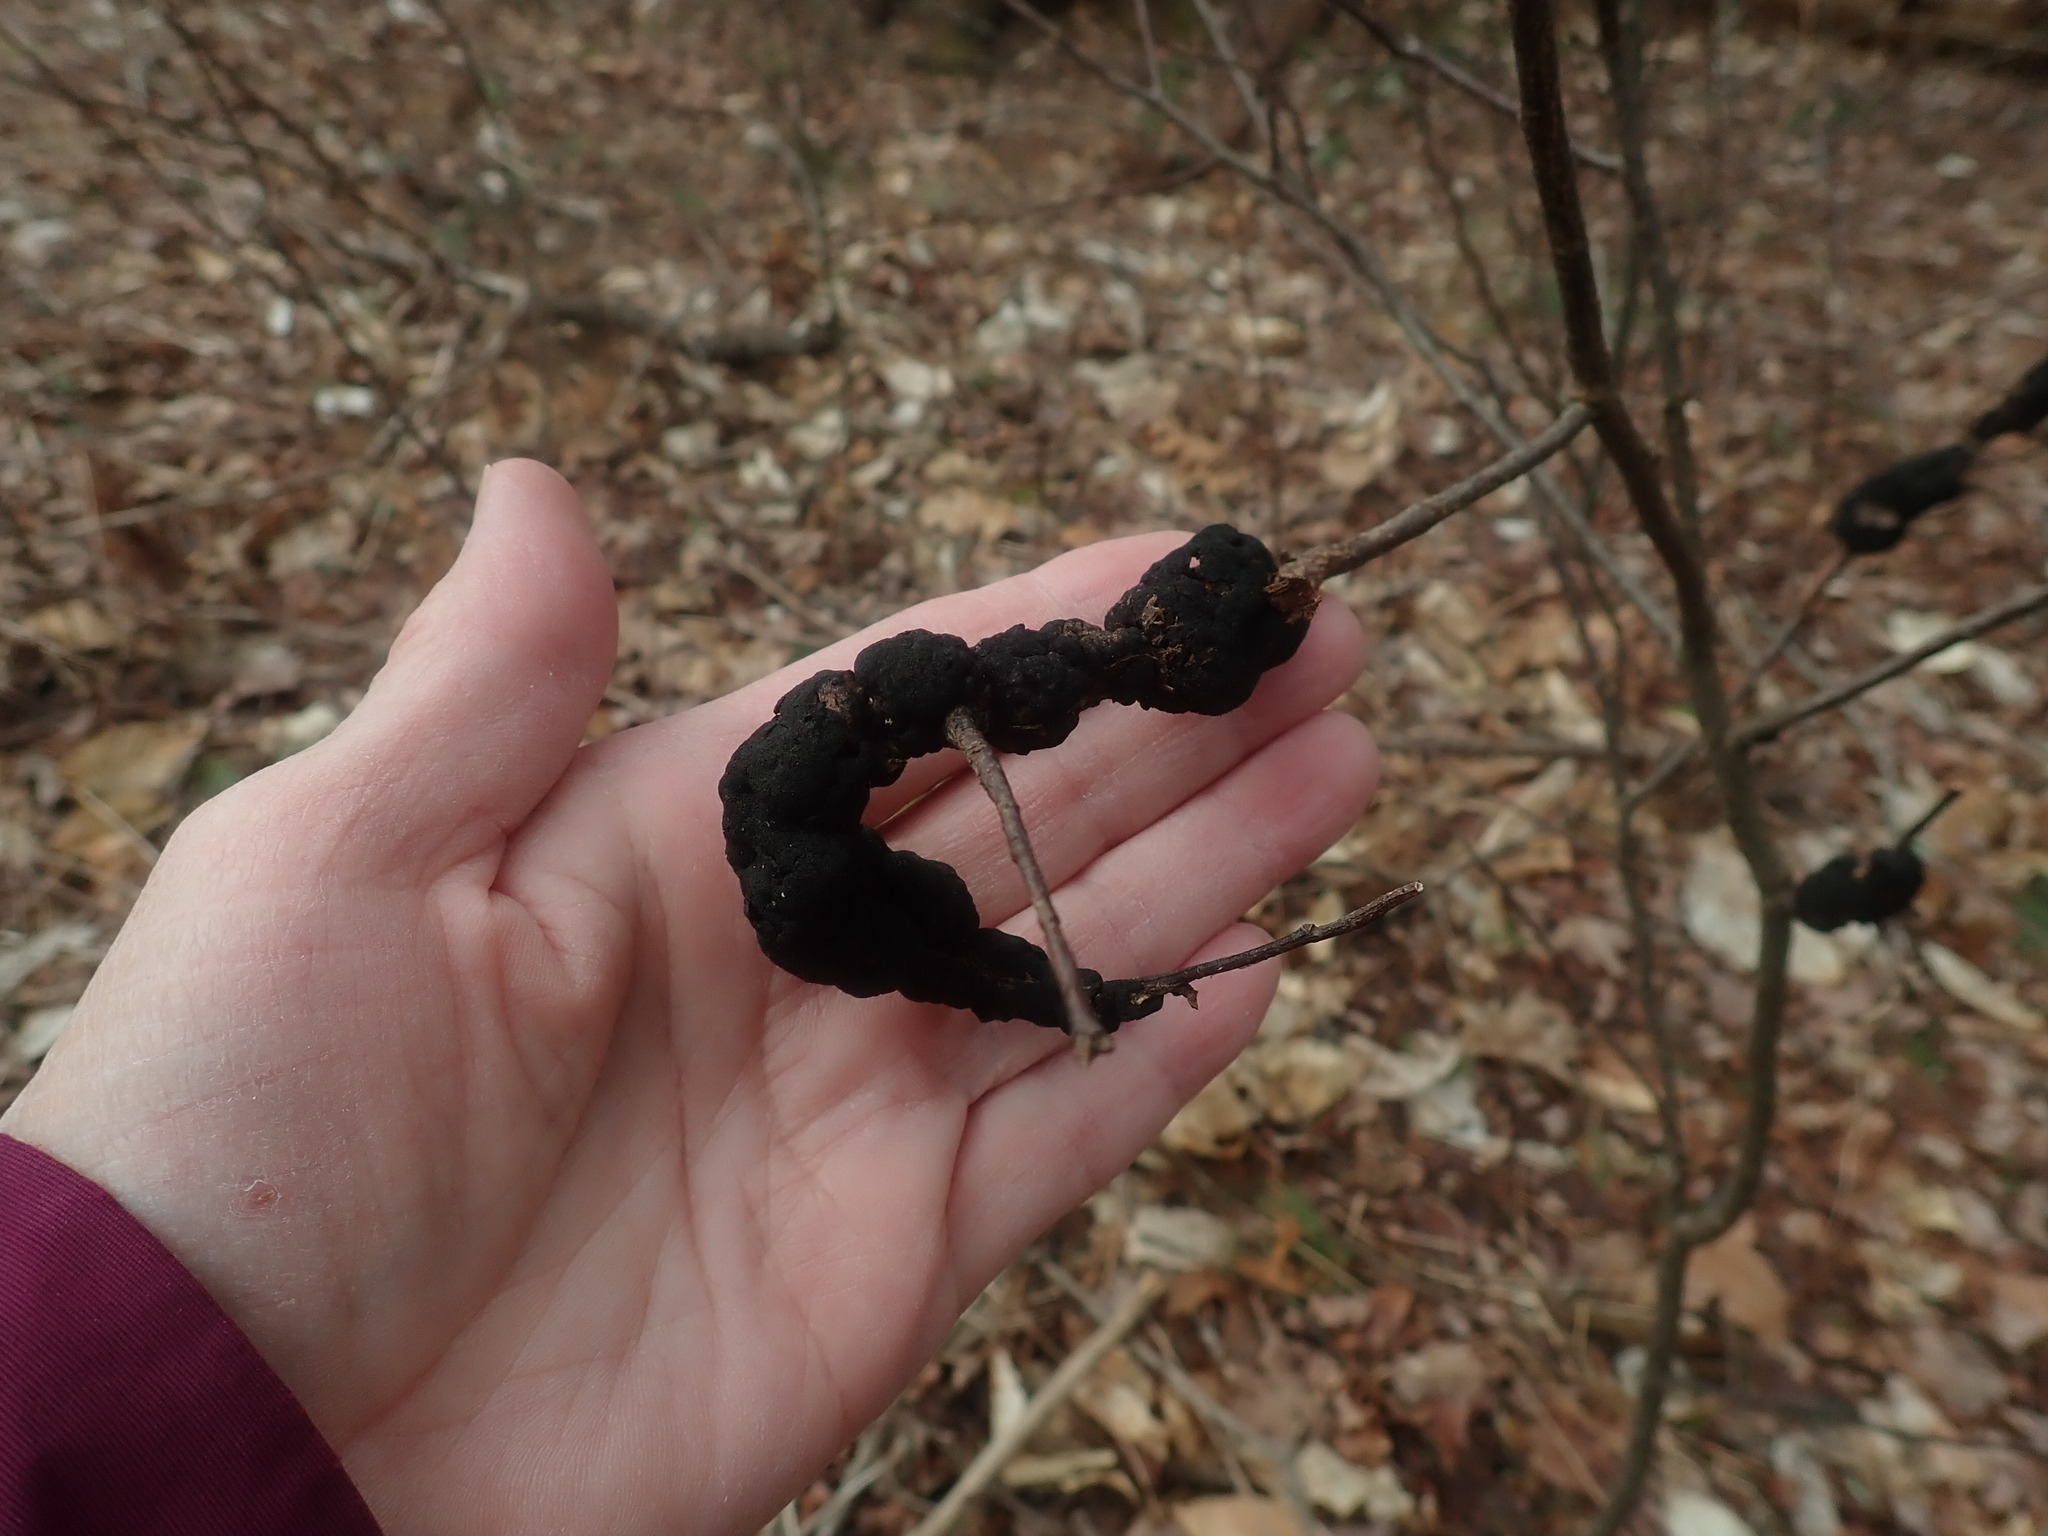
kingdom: Fungi
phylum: Ascomycota
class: Dothideomycetes
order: Venturiales
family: Venturiaceae
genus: Apiosporina
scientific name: Apiosporina morbosa
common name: Black knot
